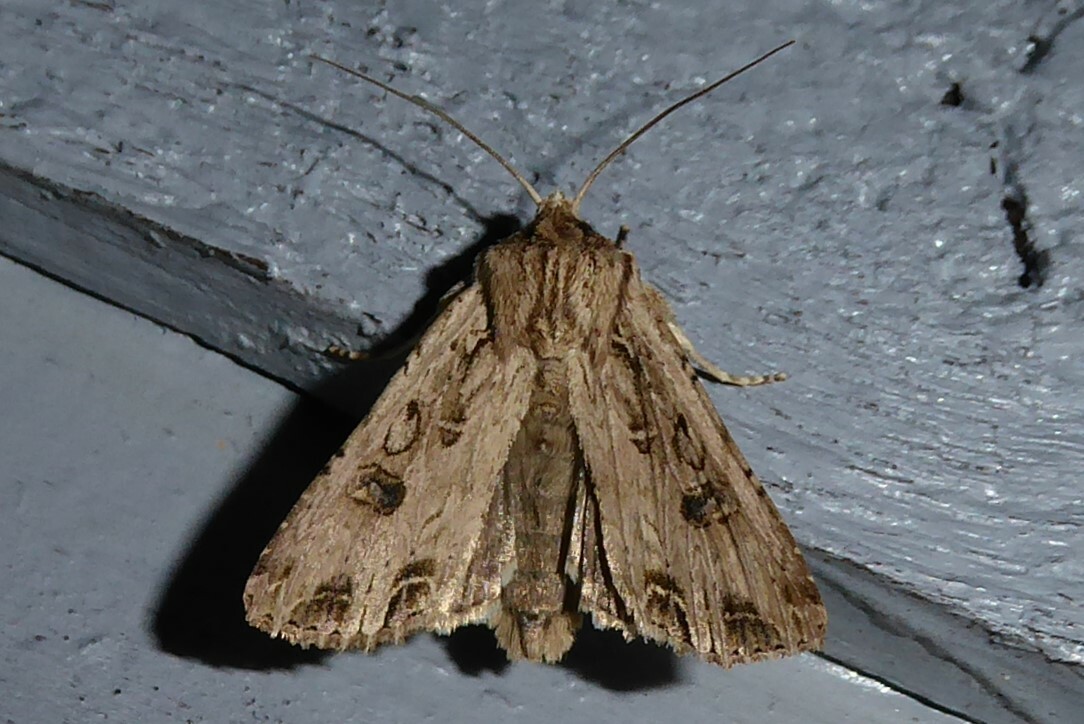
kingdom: Animalia
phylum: Arthropoda
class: Insecta
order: Lepidoptera
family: Noctuidae
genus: Ichneutica
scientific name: Ichneutica lignana
